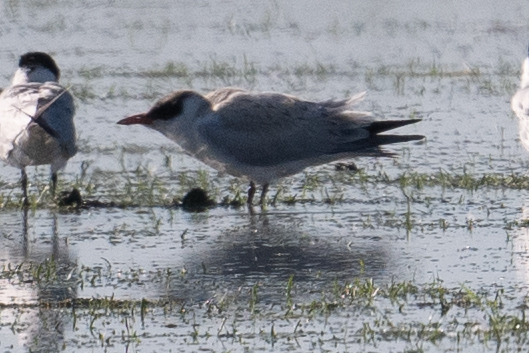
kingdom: Animalia
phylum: Chordata
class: Aves
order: Charadriiformes
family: Laridae
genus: Hydroprogne
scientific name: Hydroprogne caspia
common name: Caspian tern
